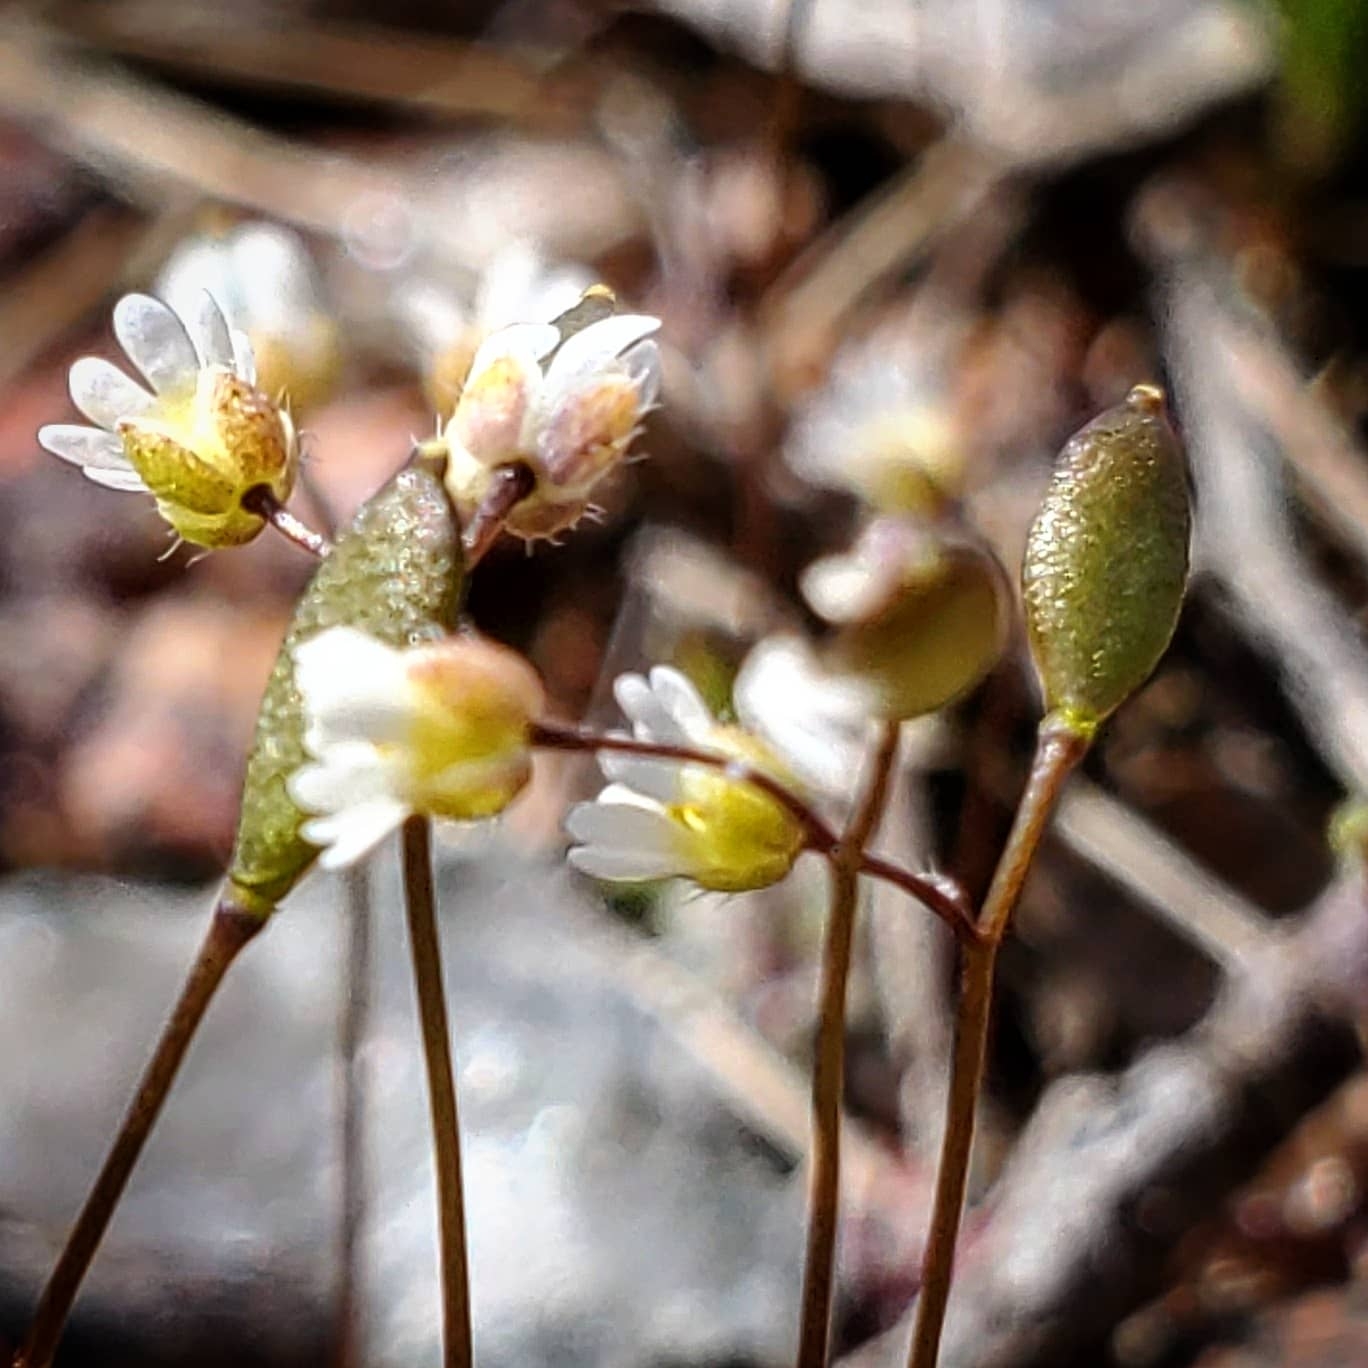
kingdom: Plantae
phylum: Tracheophyta
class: Magnoliopsida
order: Brassicales
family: Brassicaceae
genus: Draba
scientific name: Draba verna
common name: Spring draba
